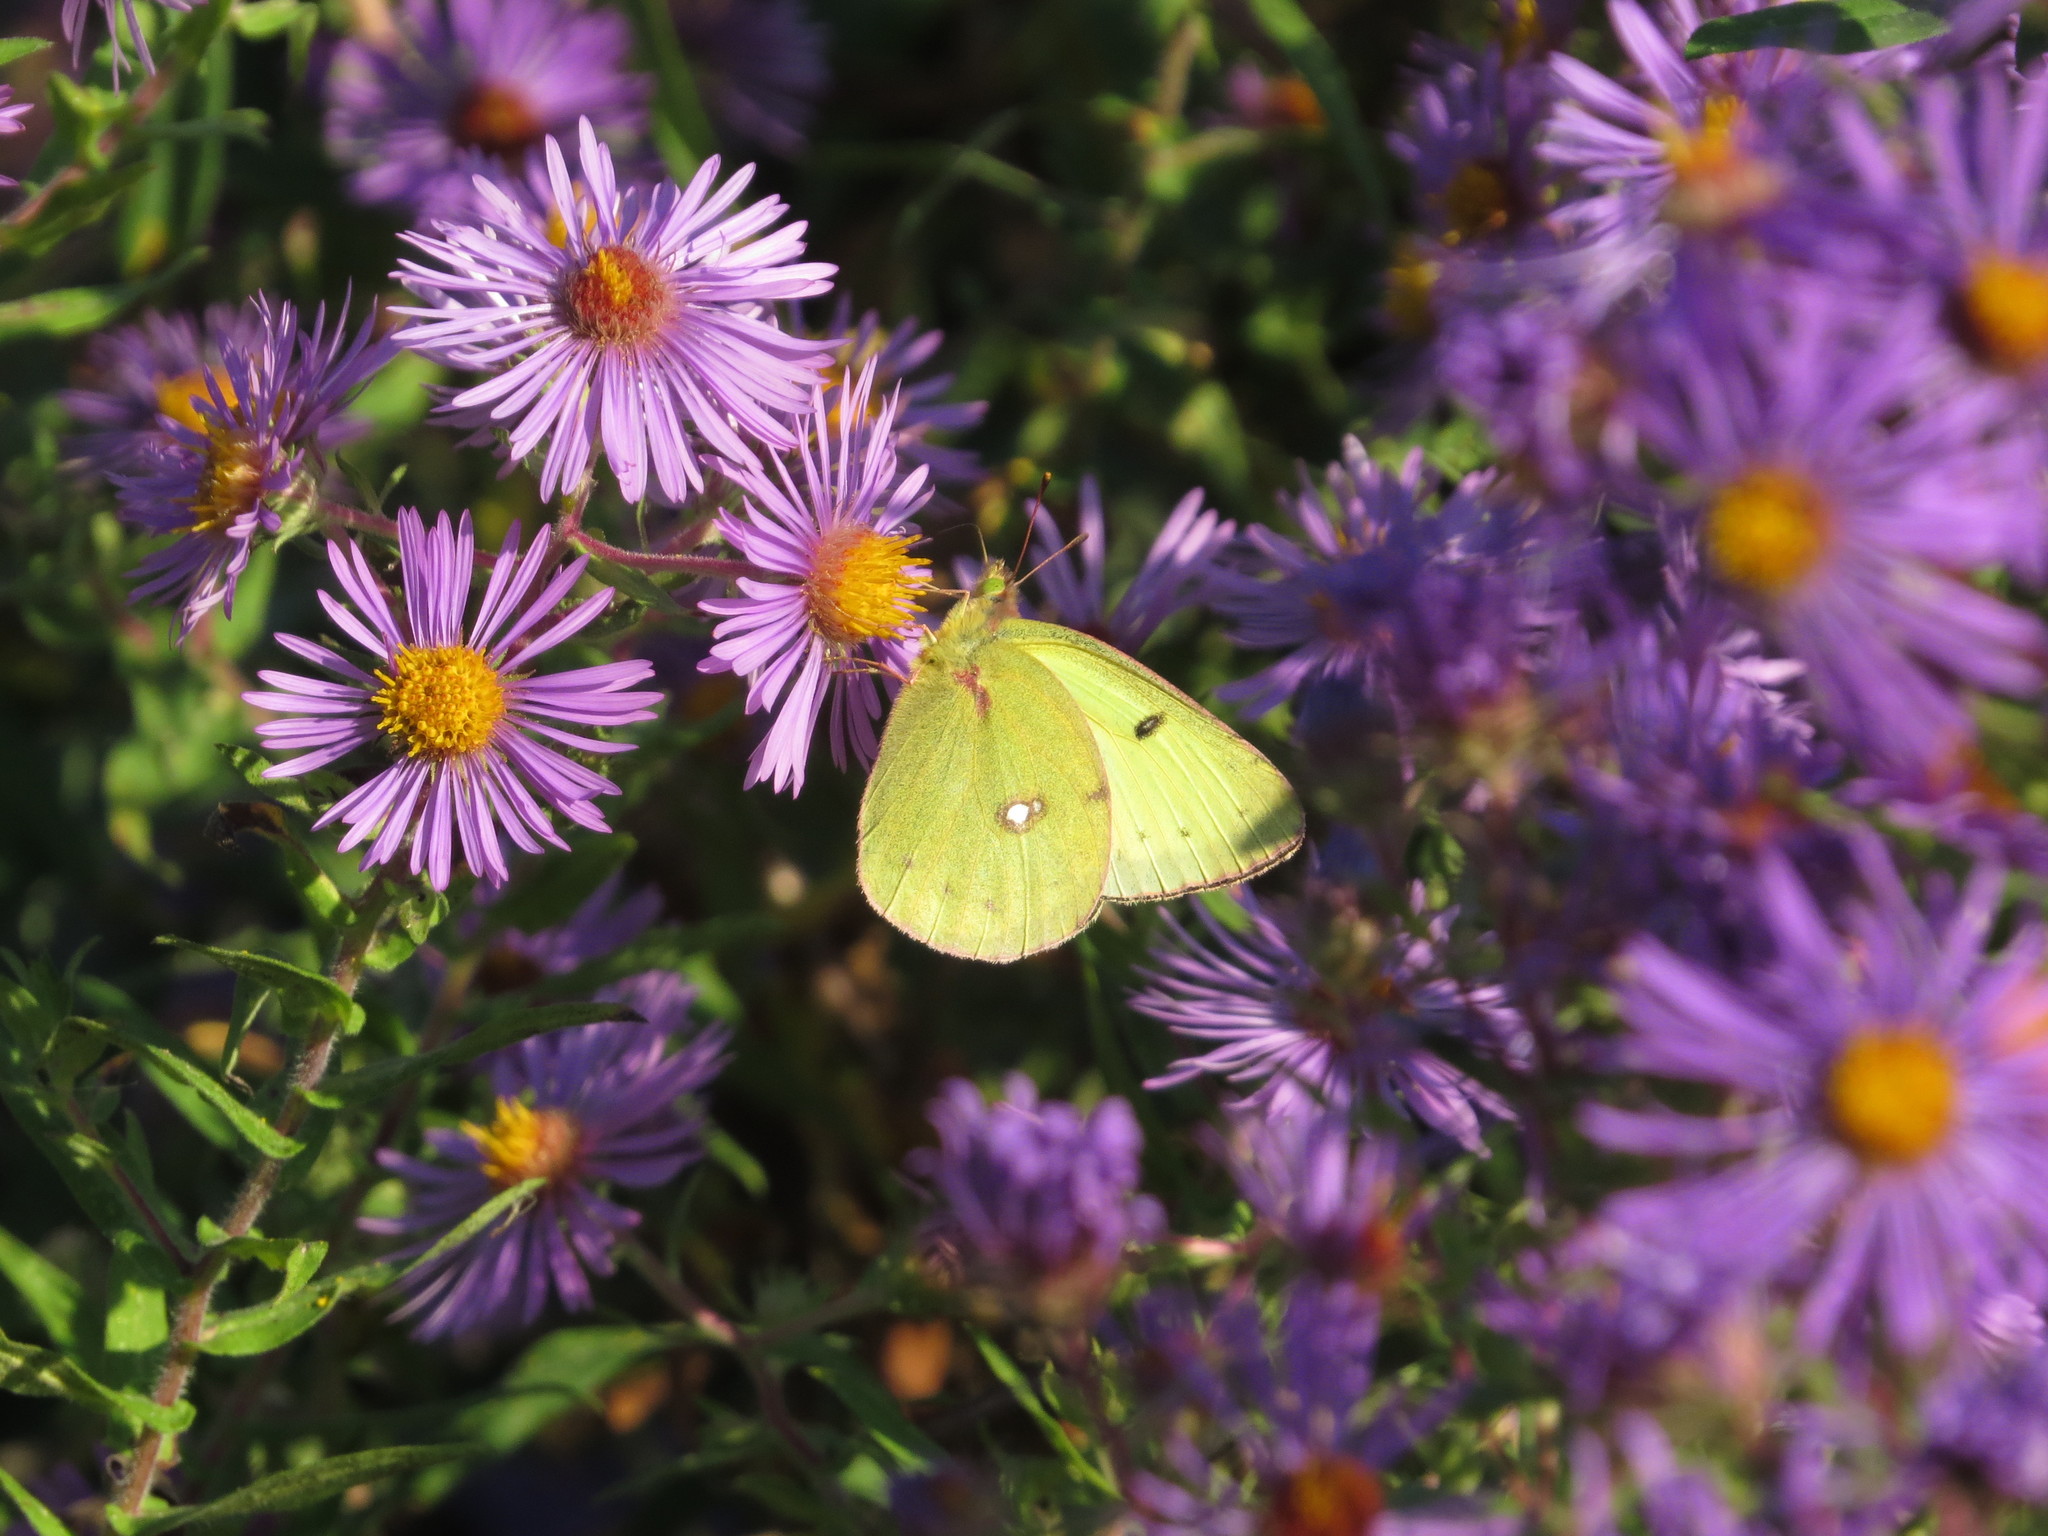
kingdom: Animalia
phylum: Arthropoda
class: Insecta
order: Lepidoptera
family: Pieridae
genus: Colias
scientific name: Colias philodice
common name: Clouded sulphur
